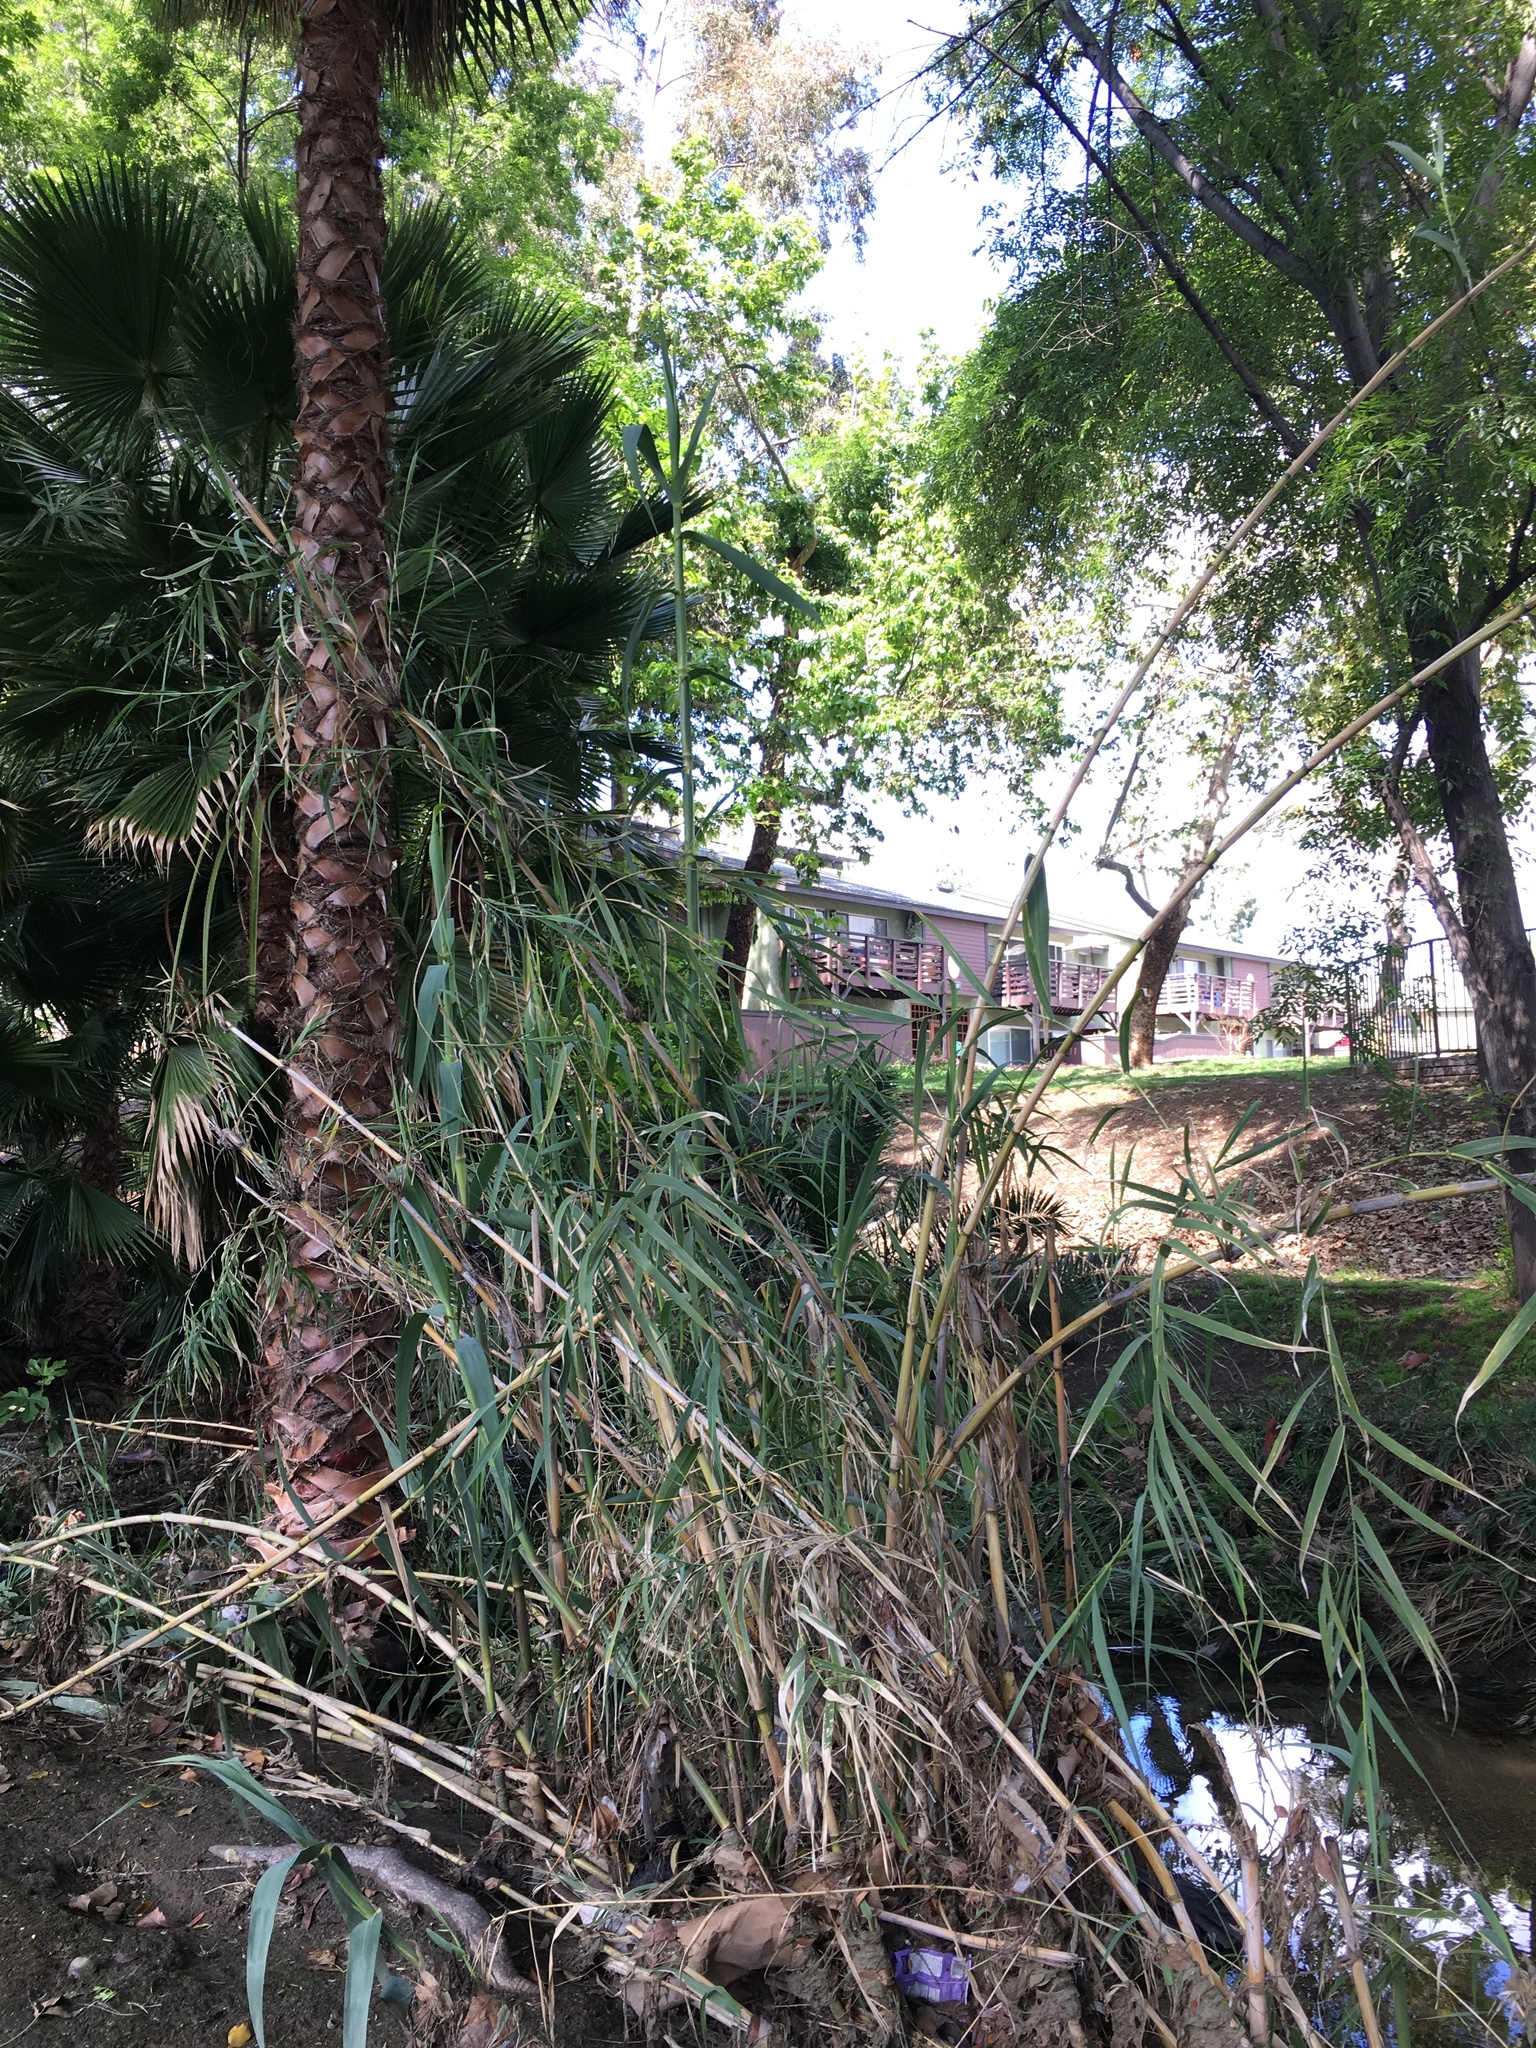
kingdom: Plantae
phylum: Tracheophyta
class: Liliopsida
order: Poales
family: Poaceae
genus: Arundo
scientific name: Arundo donax
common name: Giant reed
